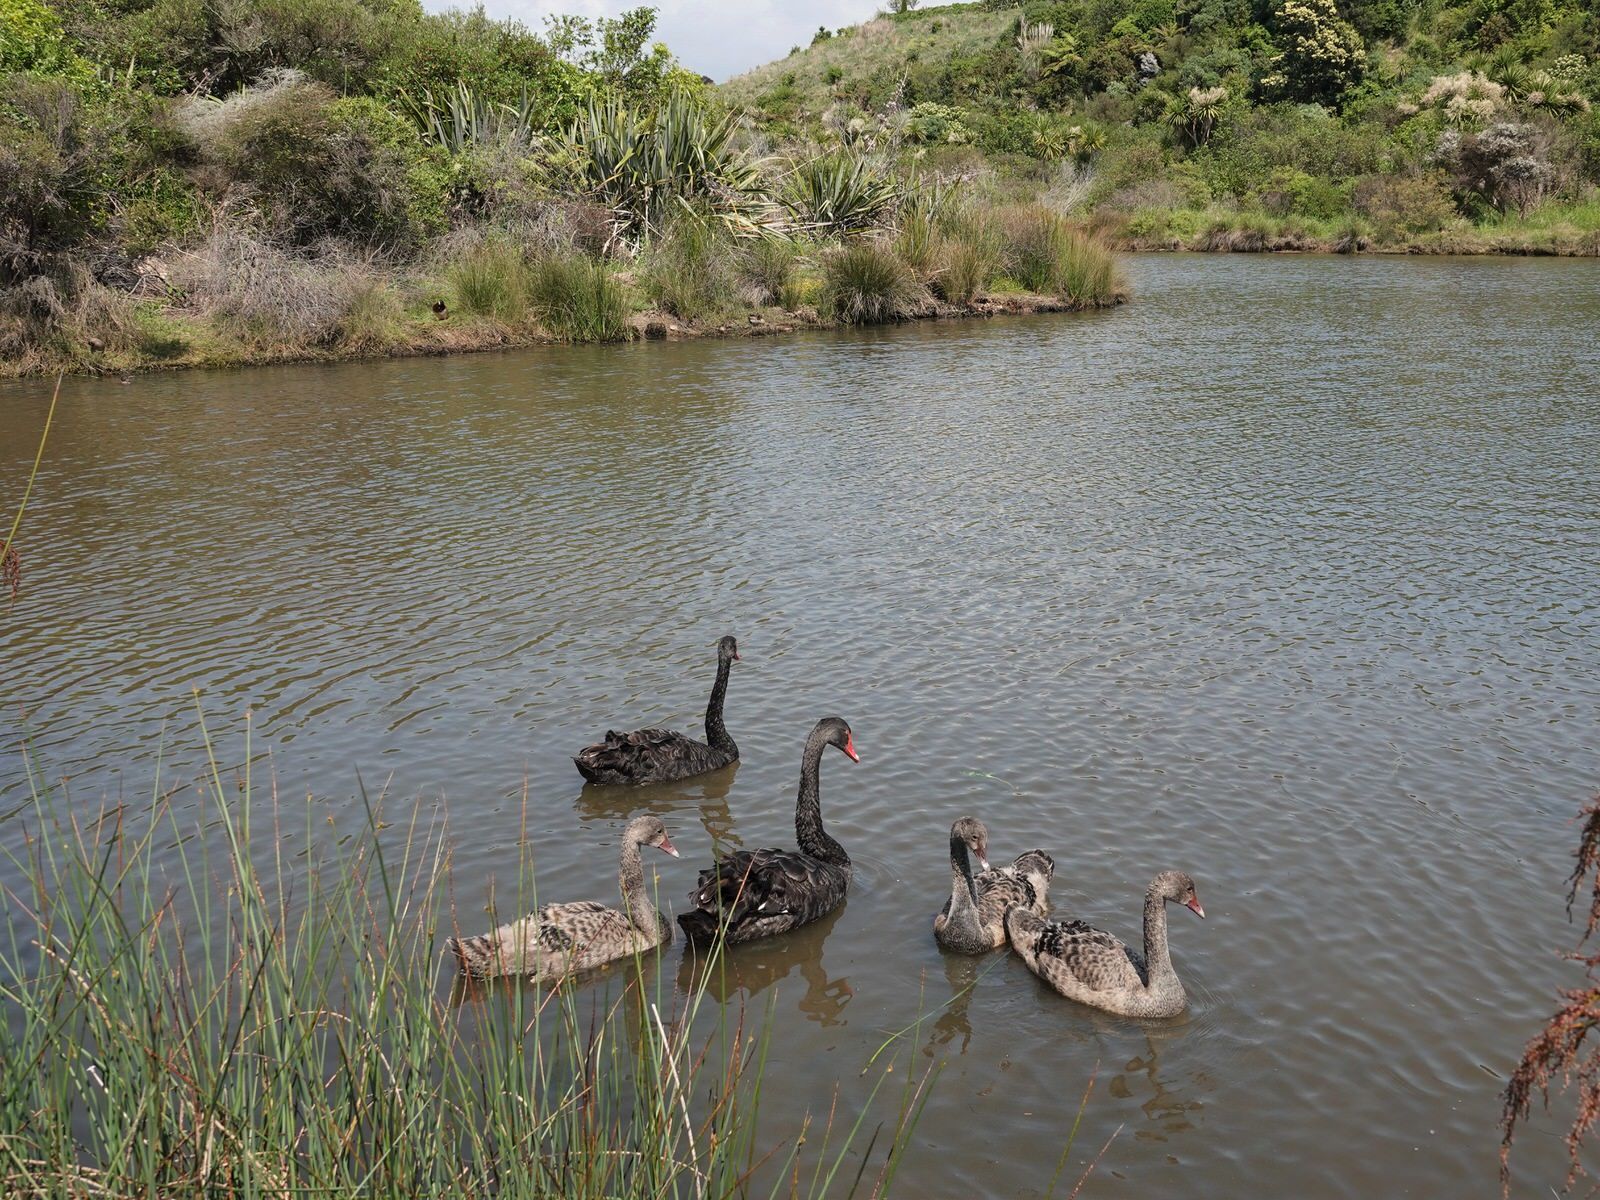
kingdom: Animalia
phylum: Chordata
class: Aves
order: Anseriformes
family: Anatidae
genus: Cygnus
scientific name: Cygnus atratus
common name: Black swan
